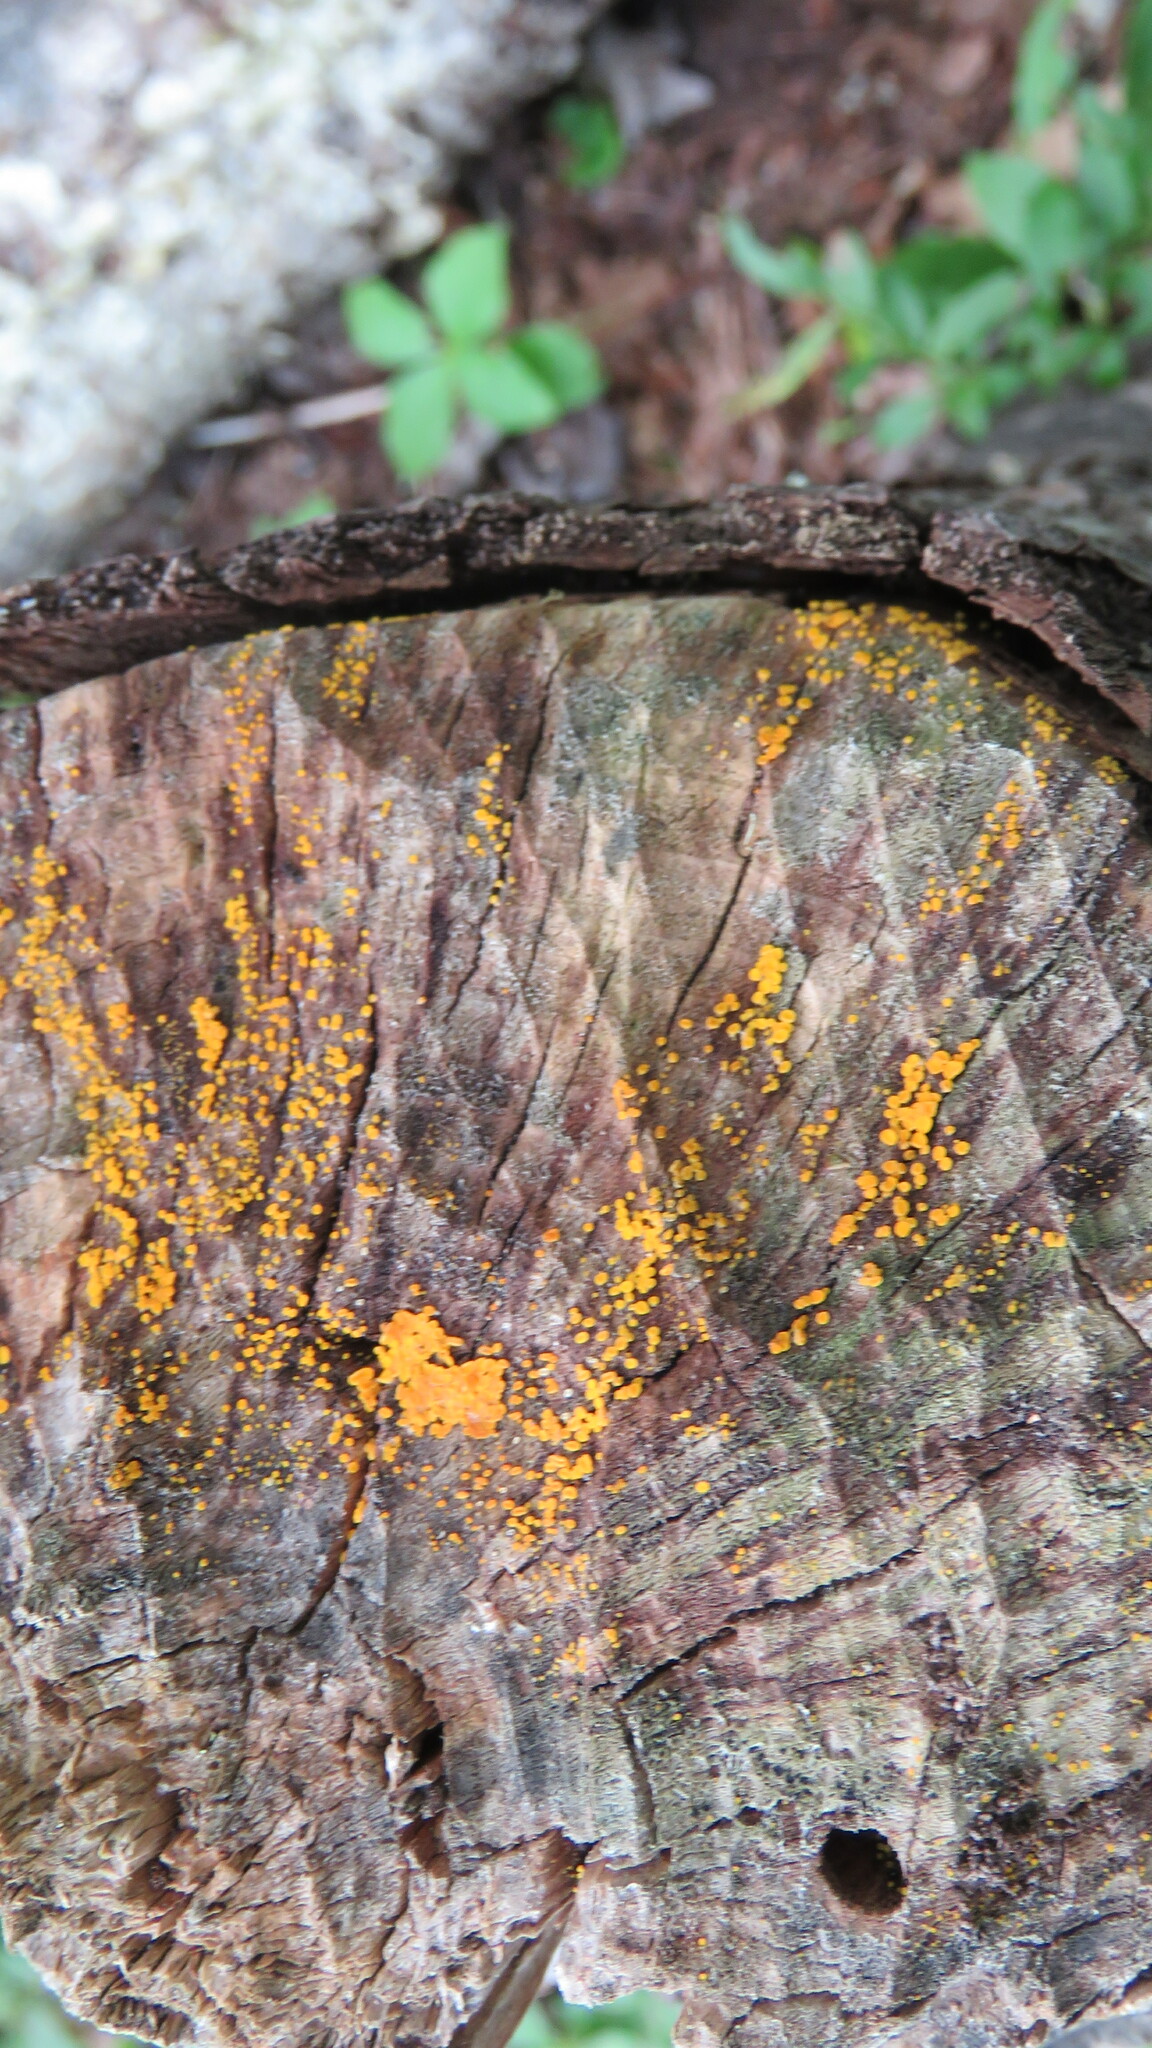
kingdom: Fungi
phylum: Ascomycota
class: Leotiomycetes
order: Helotiales
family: Pezizellaceae
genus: Calycina
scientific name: Calycina citrina
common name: Yellow fairy cups
